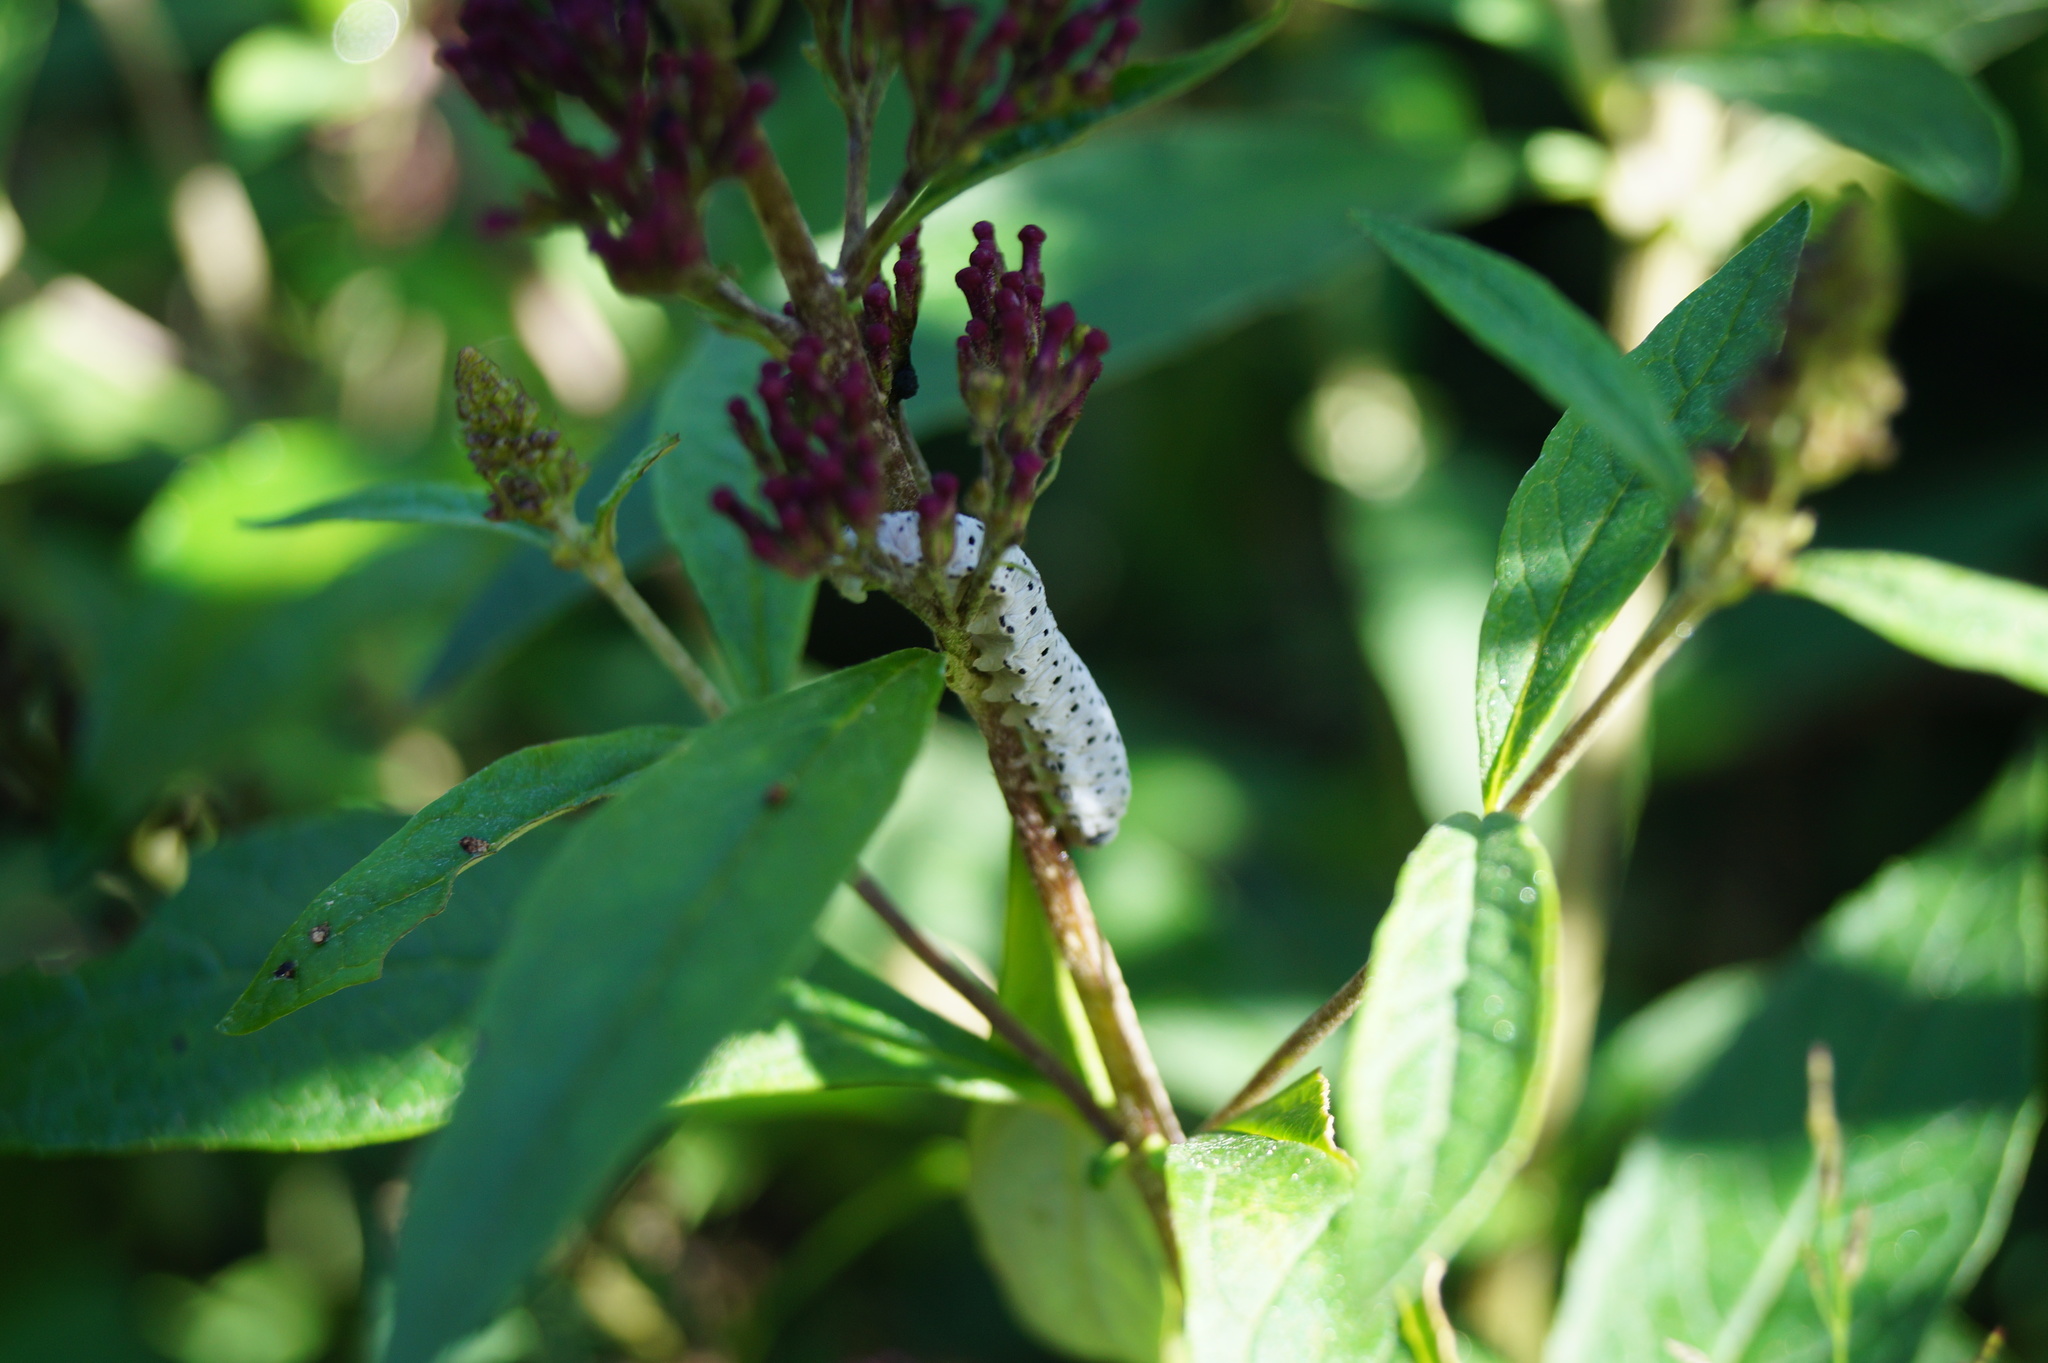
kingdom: Animalia
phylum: Arthropoda
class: Insecta
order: Hymenoptera
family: Tenthredinidae
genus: Tenthredo
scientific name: Tenthredo scrophulariae
